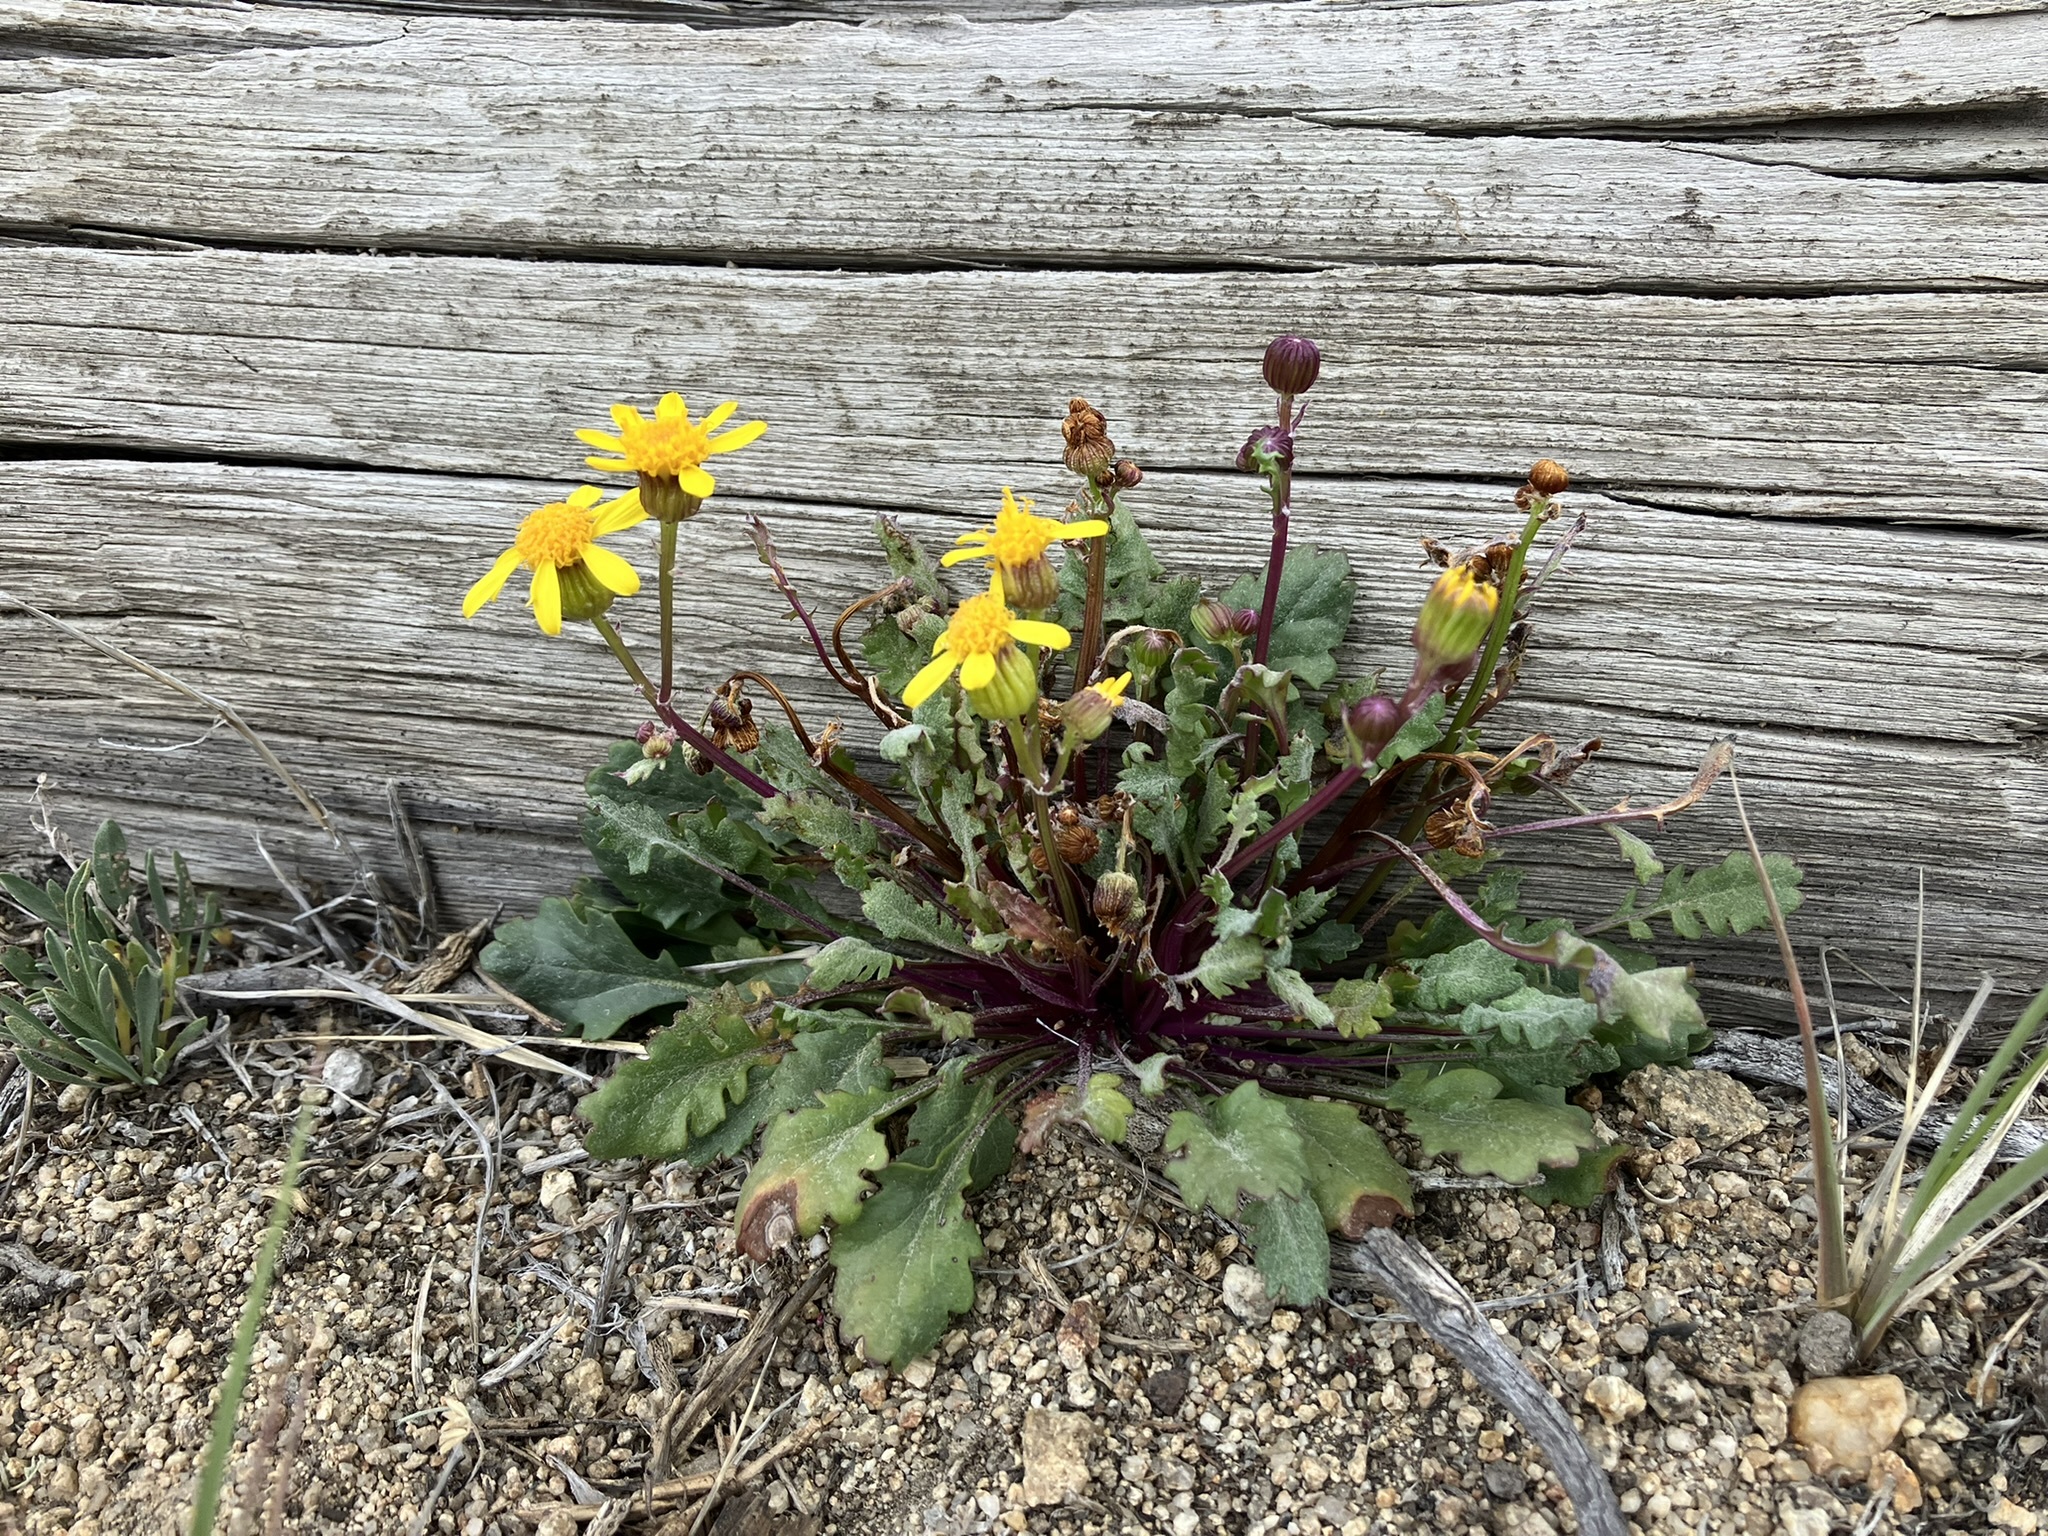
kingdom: Plantae
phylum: Tracheophyta
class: Magnoliopsida
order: Asterales
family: Asteraceae
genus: Packera
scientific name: Packera multilobata
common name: Lobe-leaf groundsel
